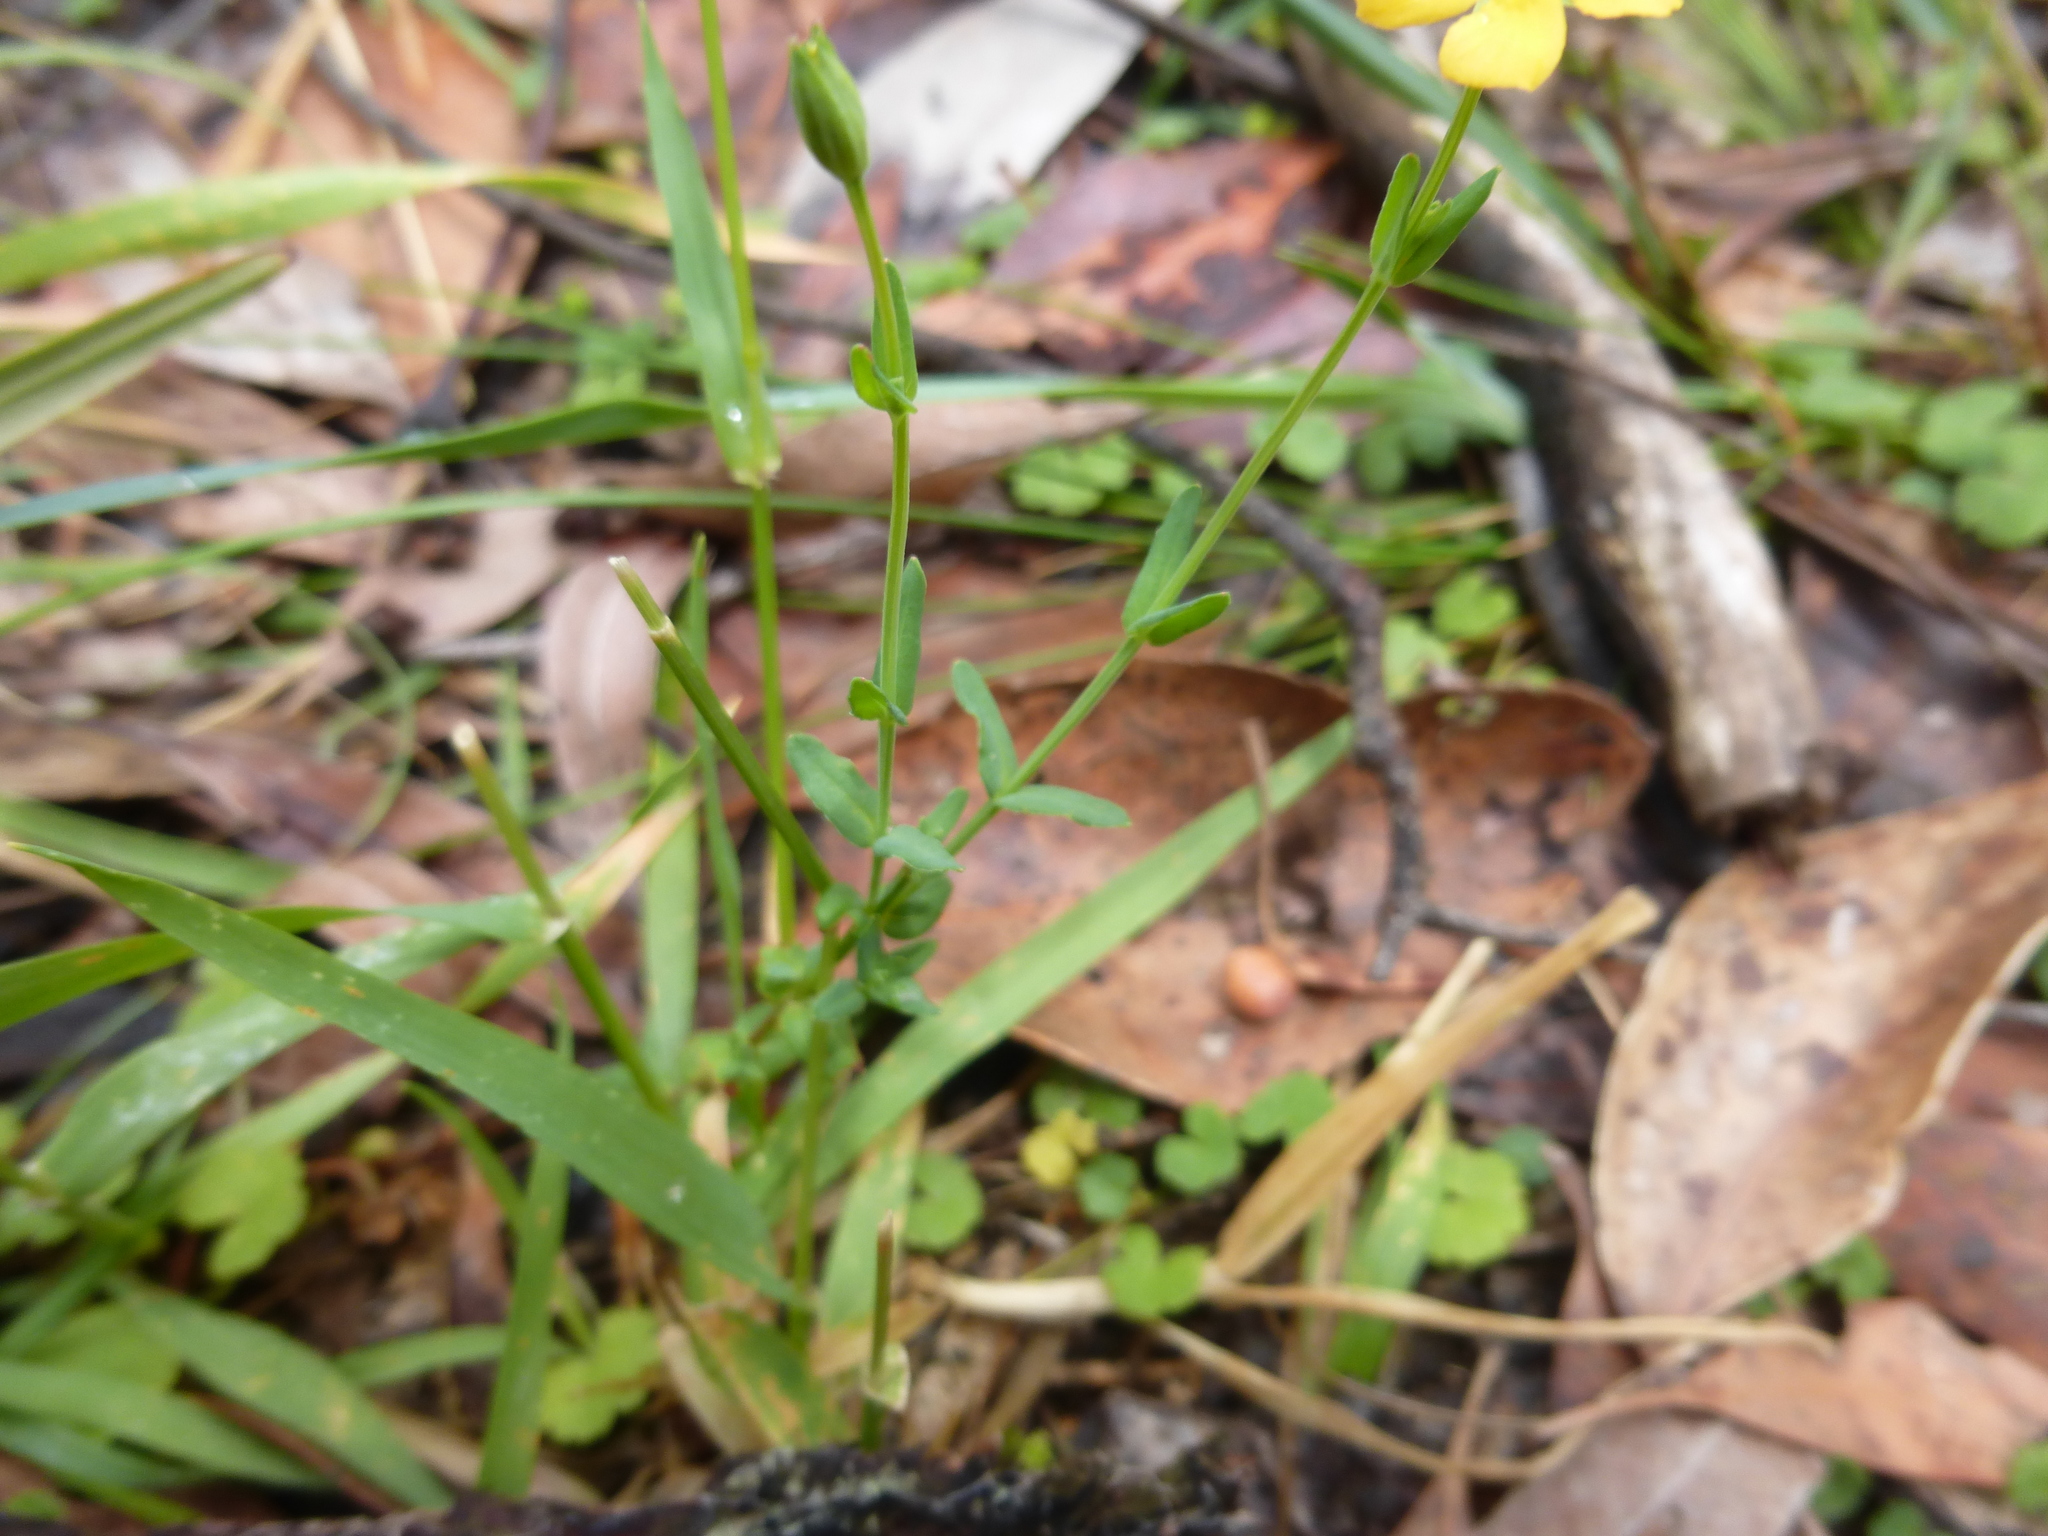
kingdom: Plantae
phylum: Tracheophyta
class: Magnoliopsida
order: Malpighiales
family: Hypericaceae
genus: Hypericum
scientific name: Hypericum gramineum
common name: Grassy st. johnswort
